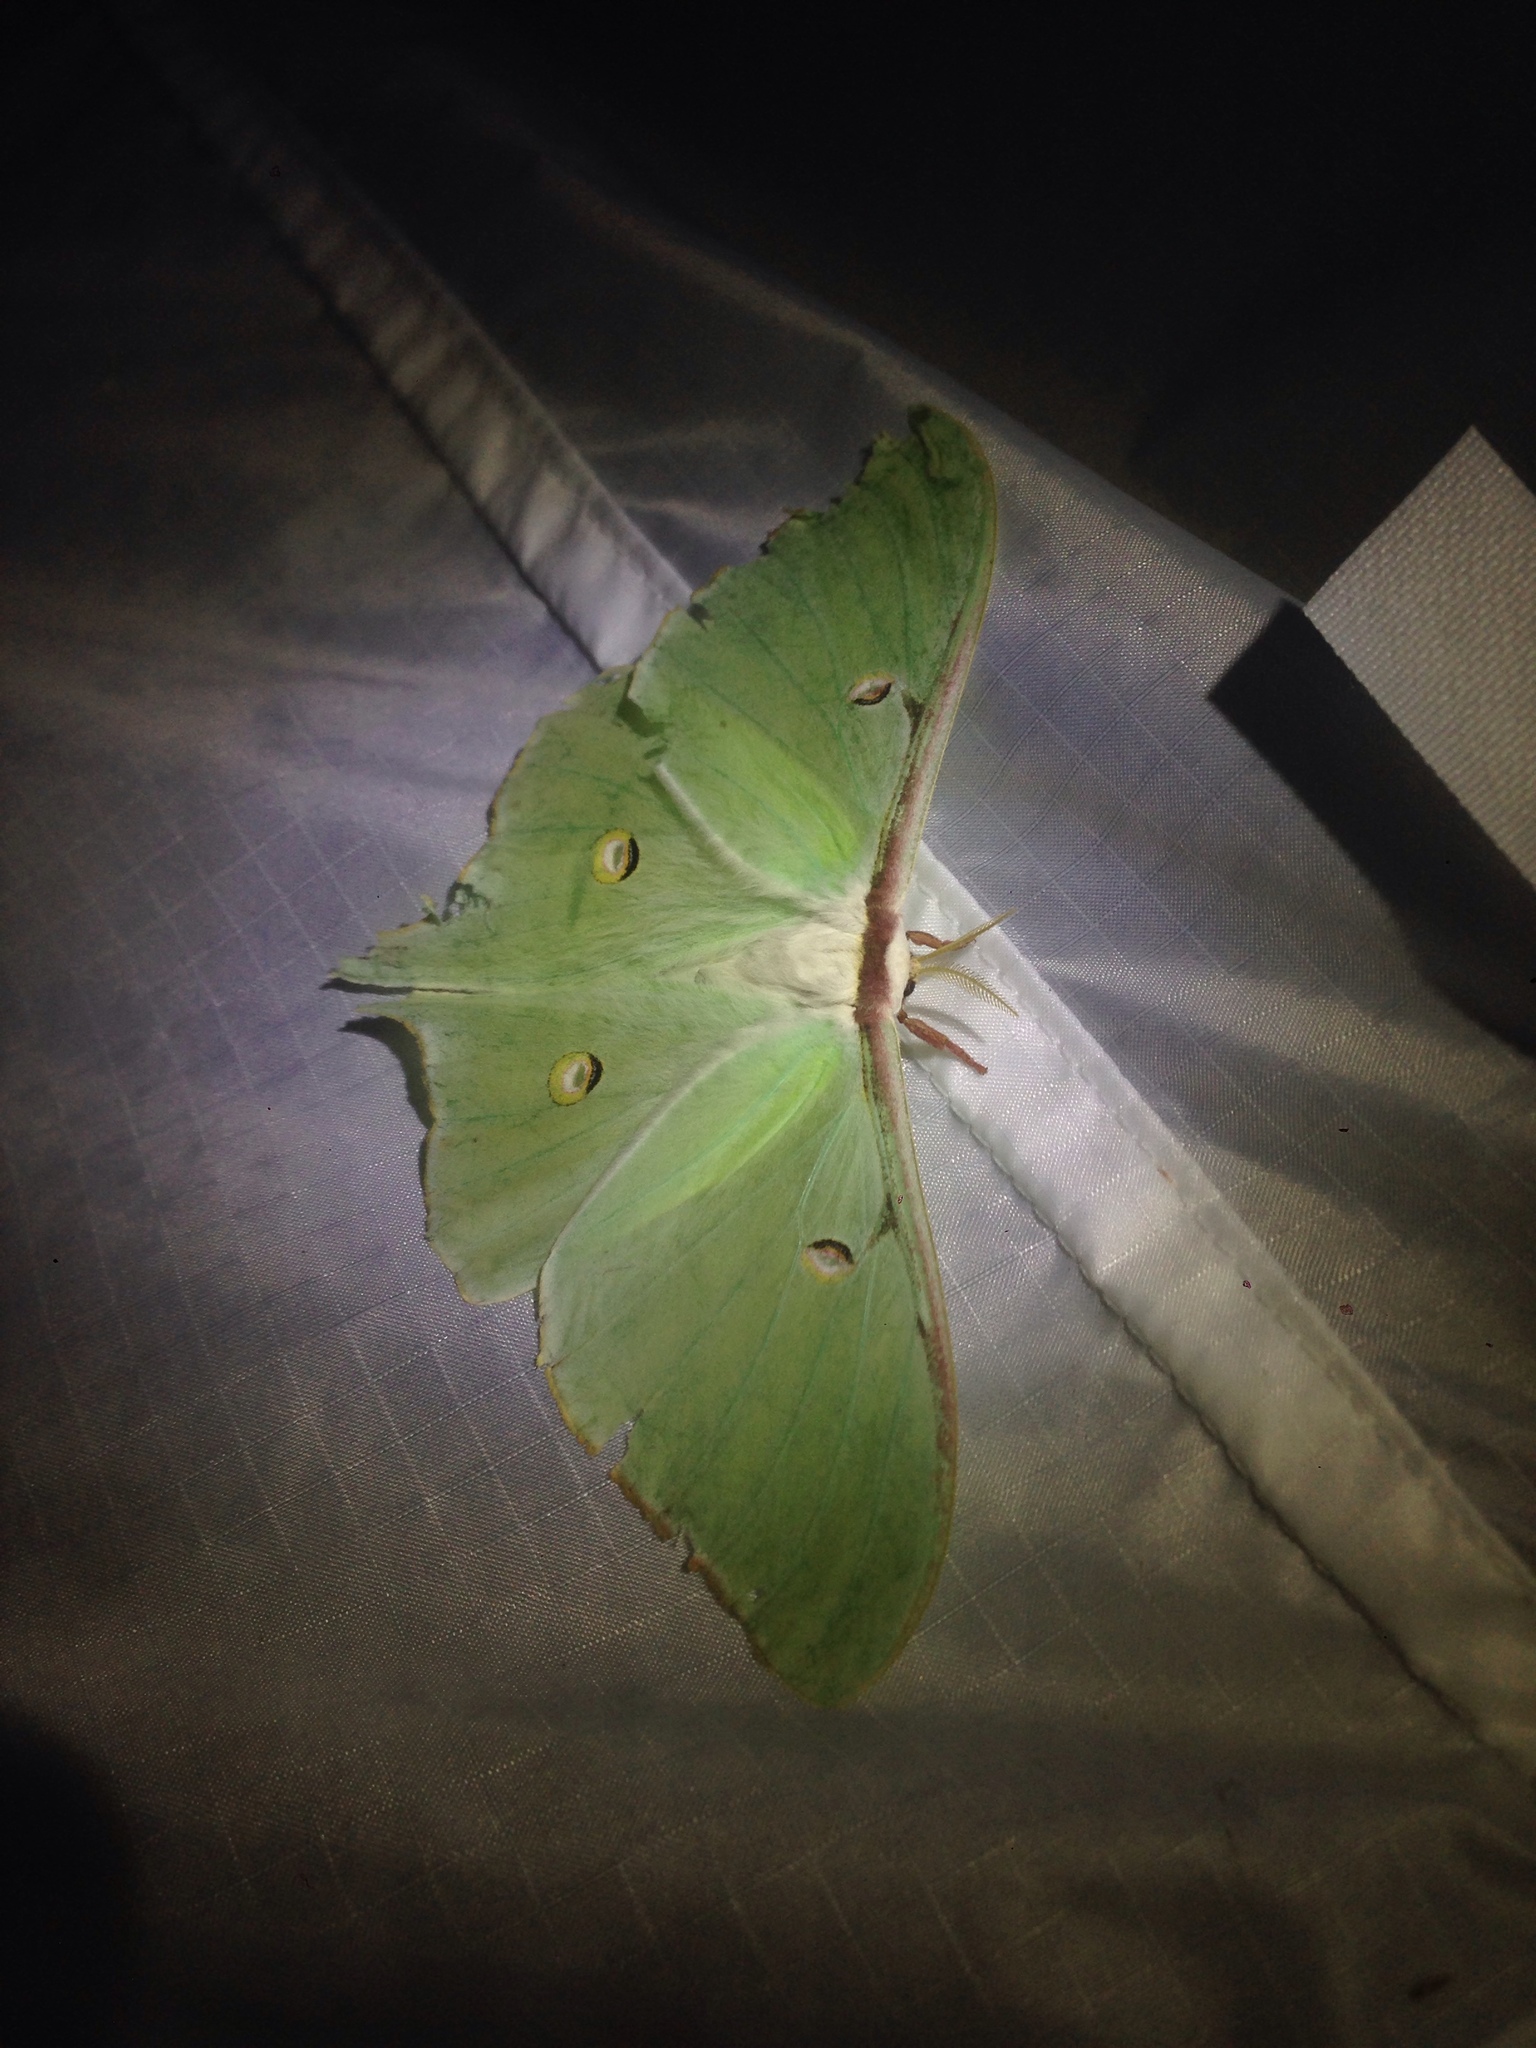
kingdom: Animalia
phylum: Arthropoda
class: Insecta
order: Lepidoptera
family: Saturniidae
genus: Actias
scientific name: Actias luna
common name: Luna moth
